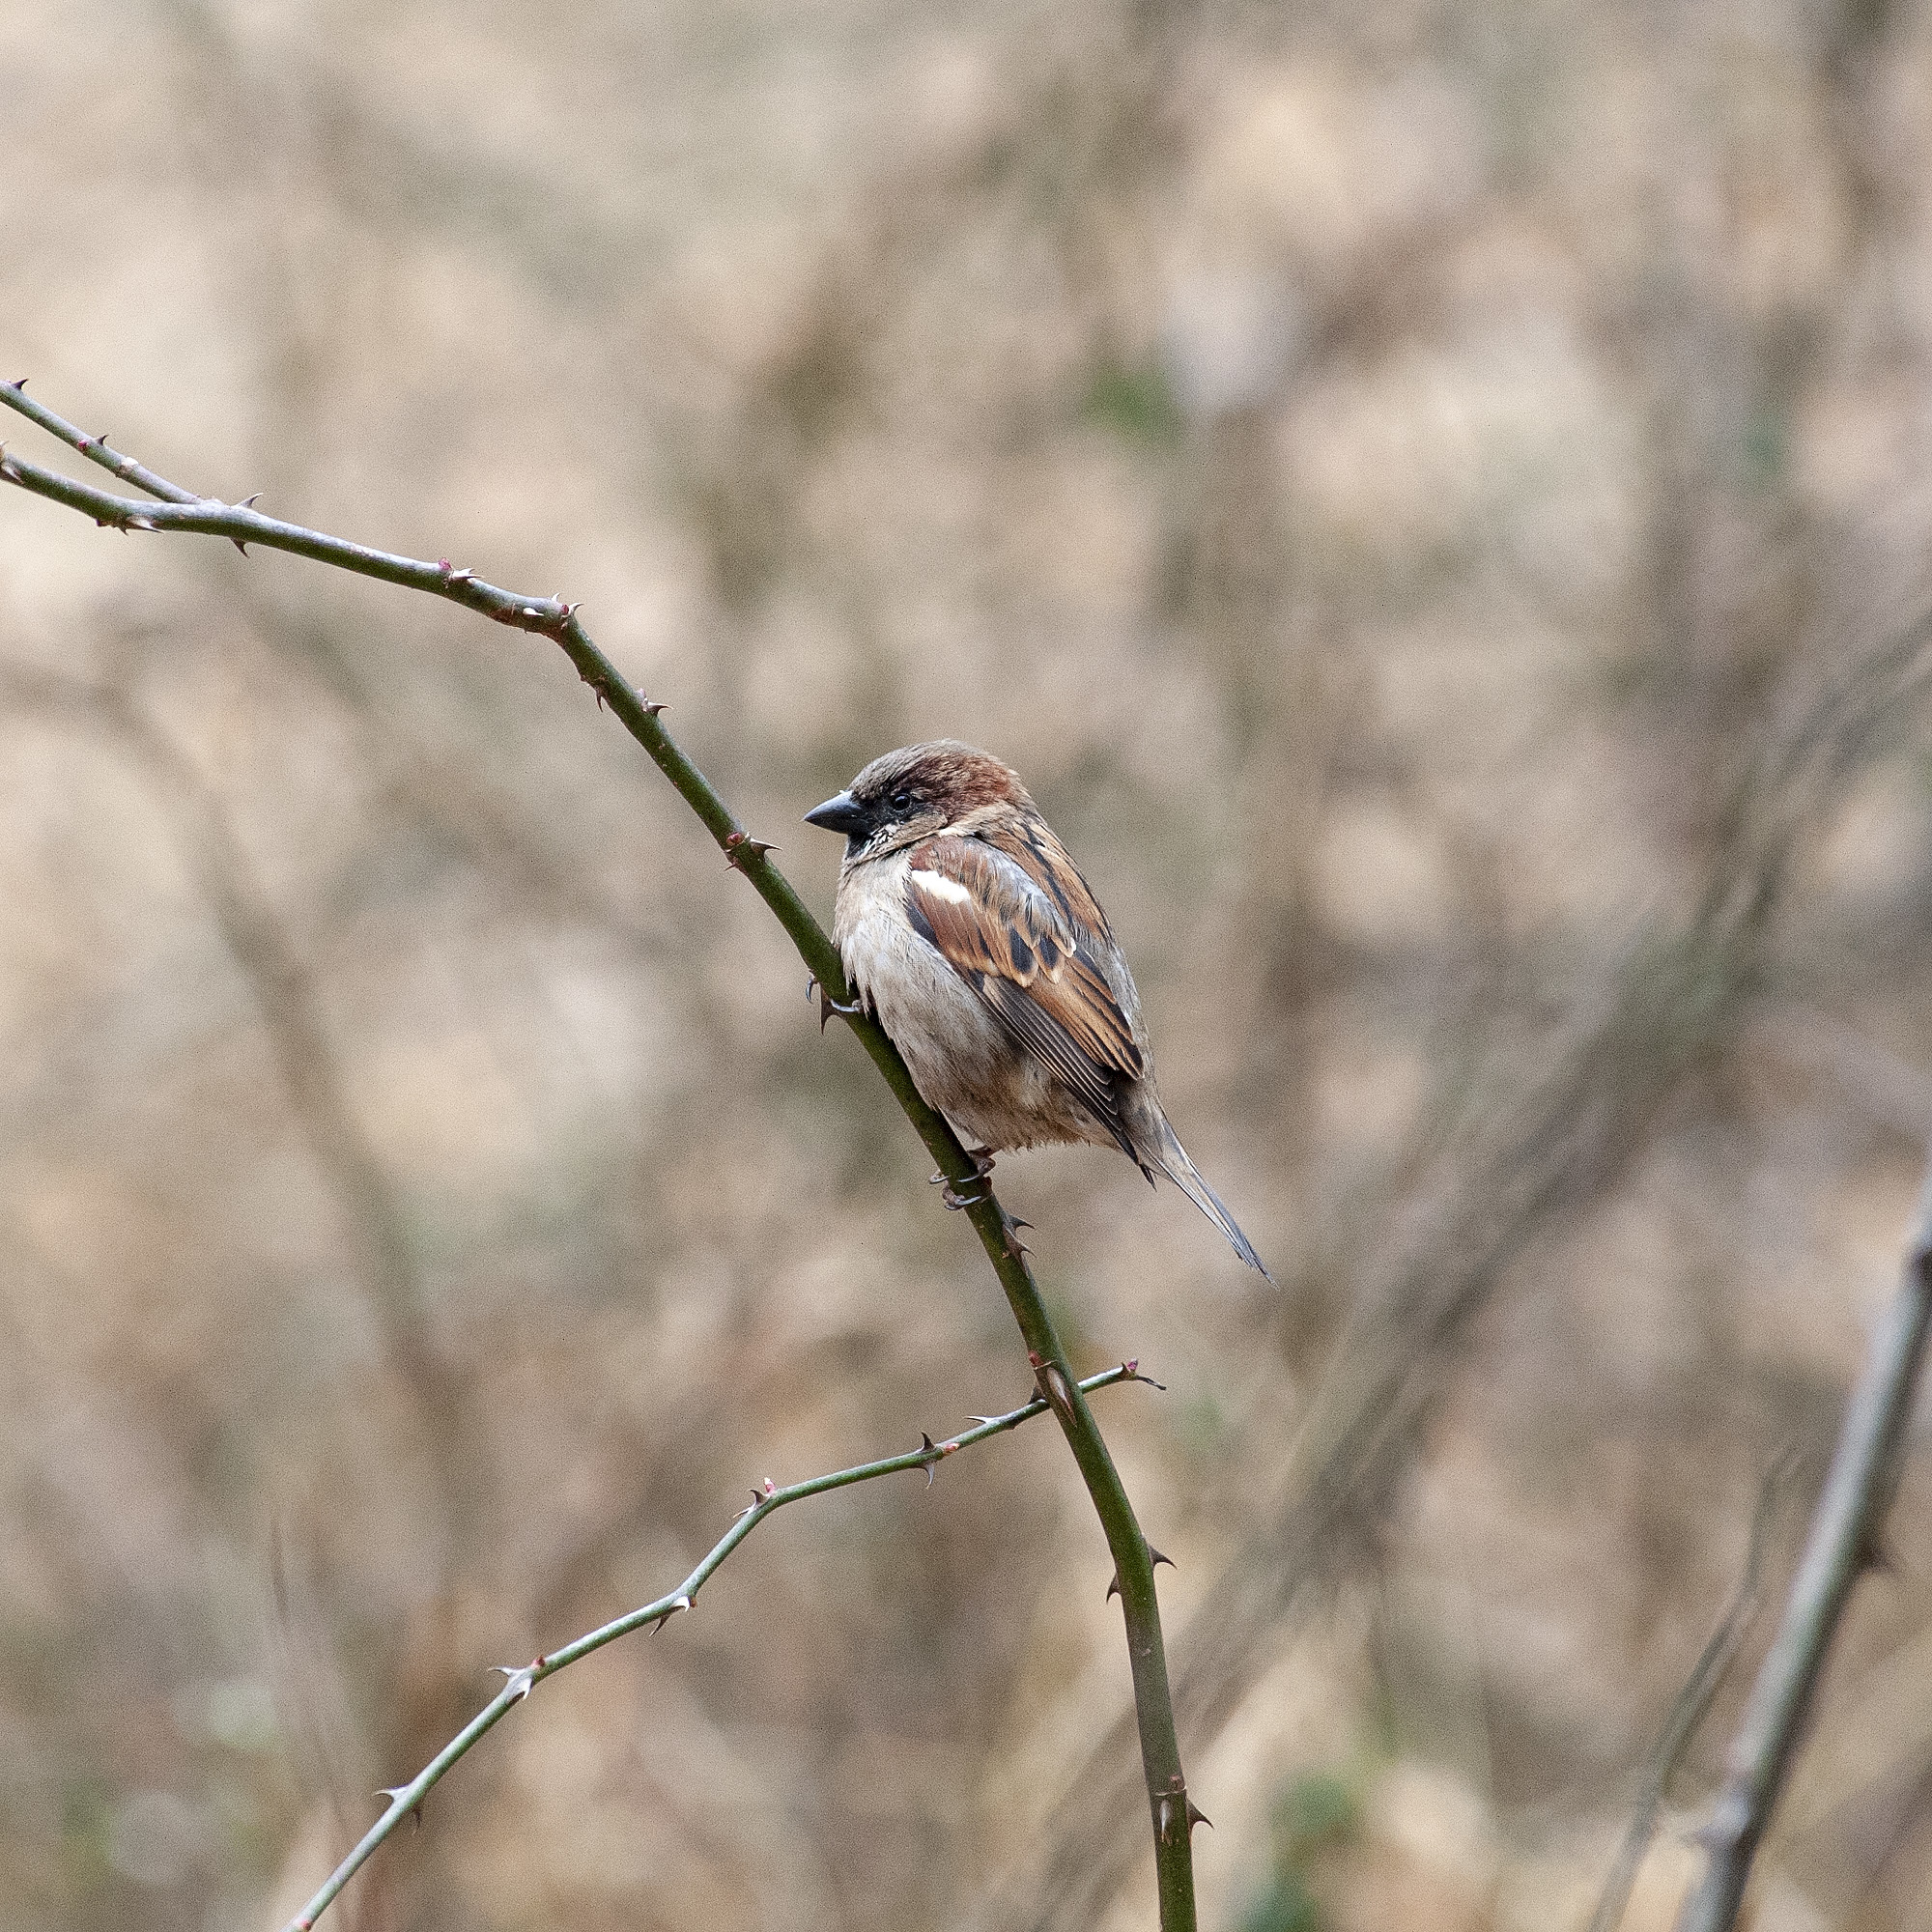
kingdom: Animalia
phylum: Chordata
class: Aves
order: Passeriformes
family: Passeridae
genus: Passer
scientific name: Passer domesticus
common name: House sparrow
